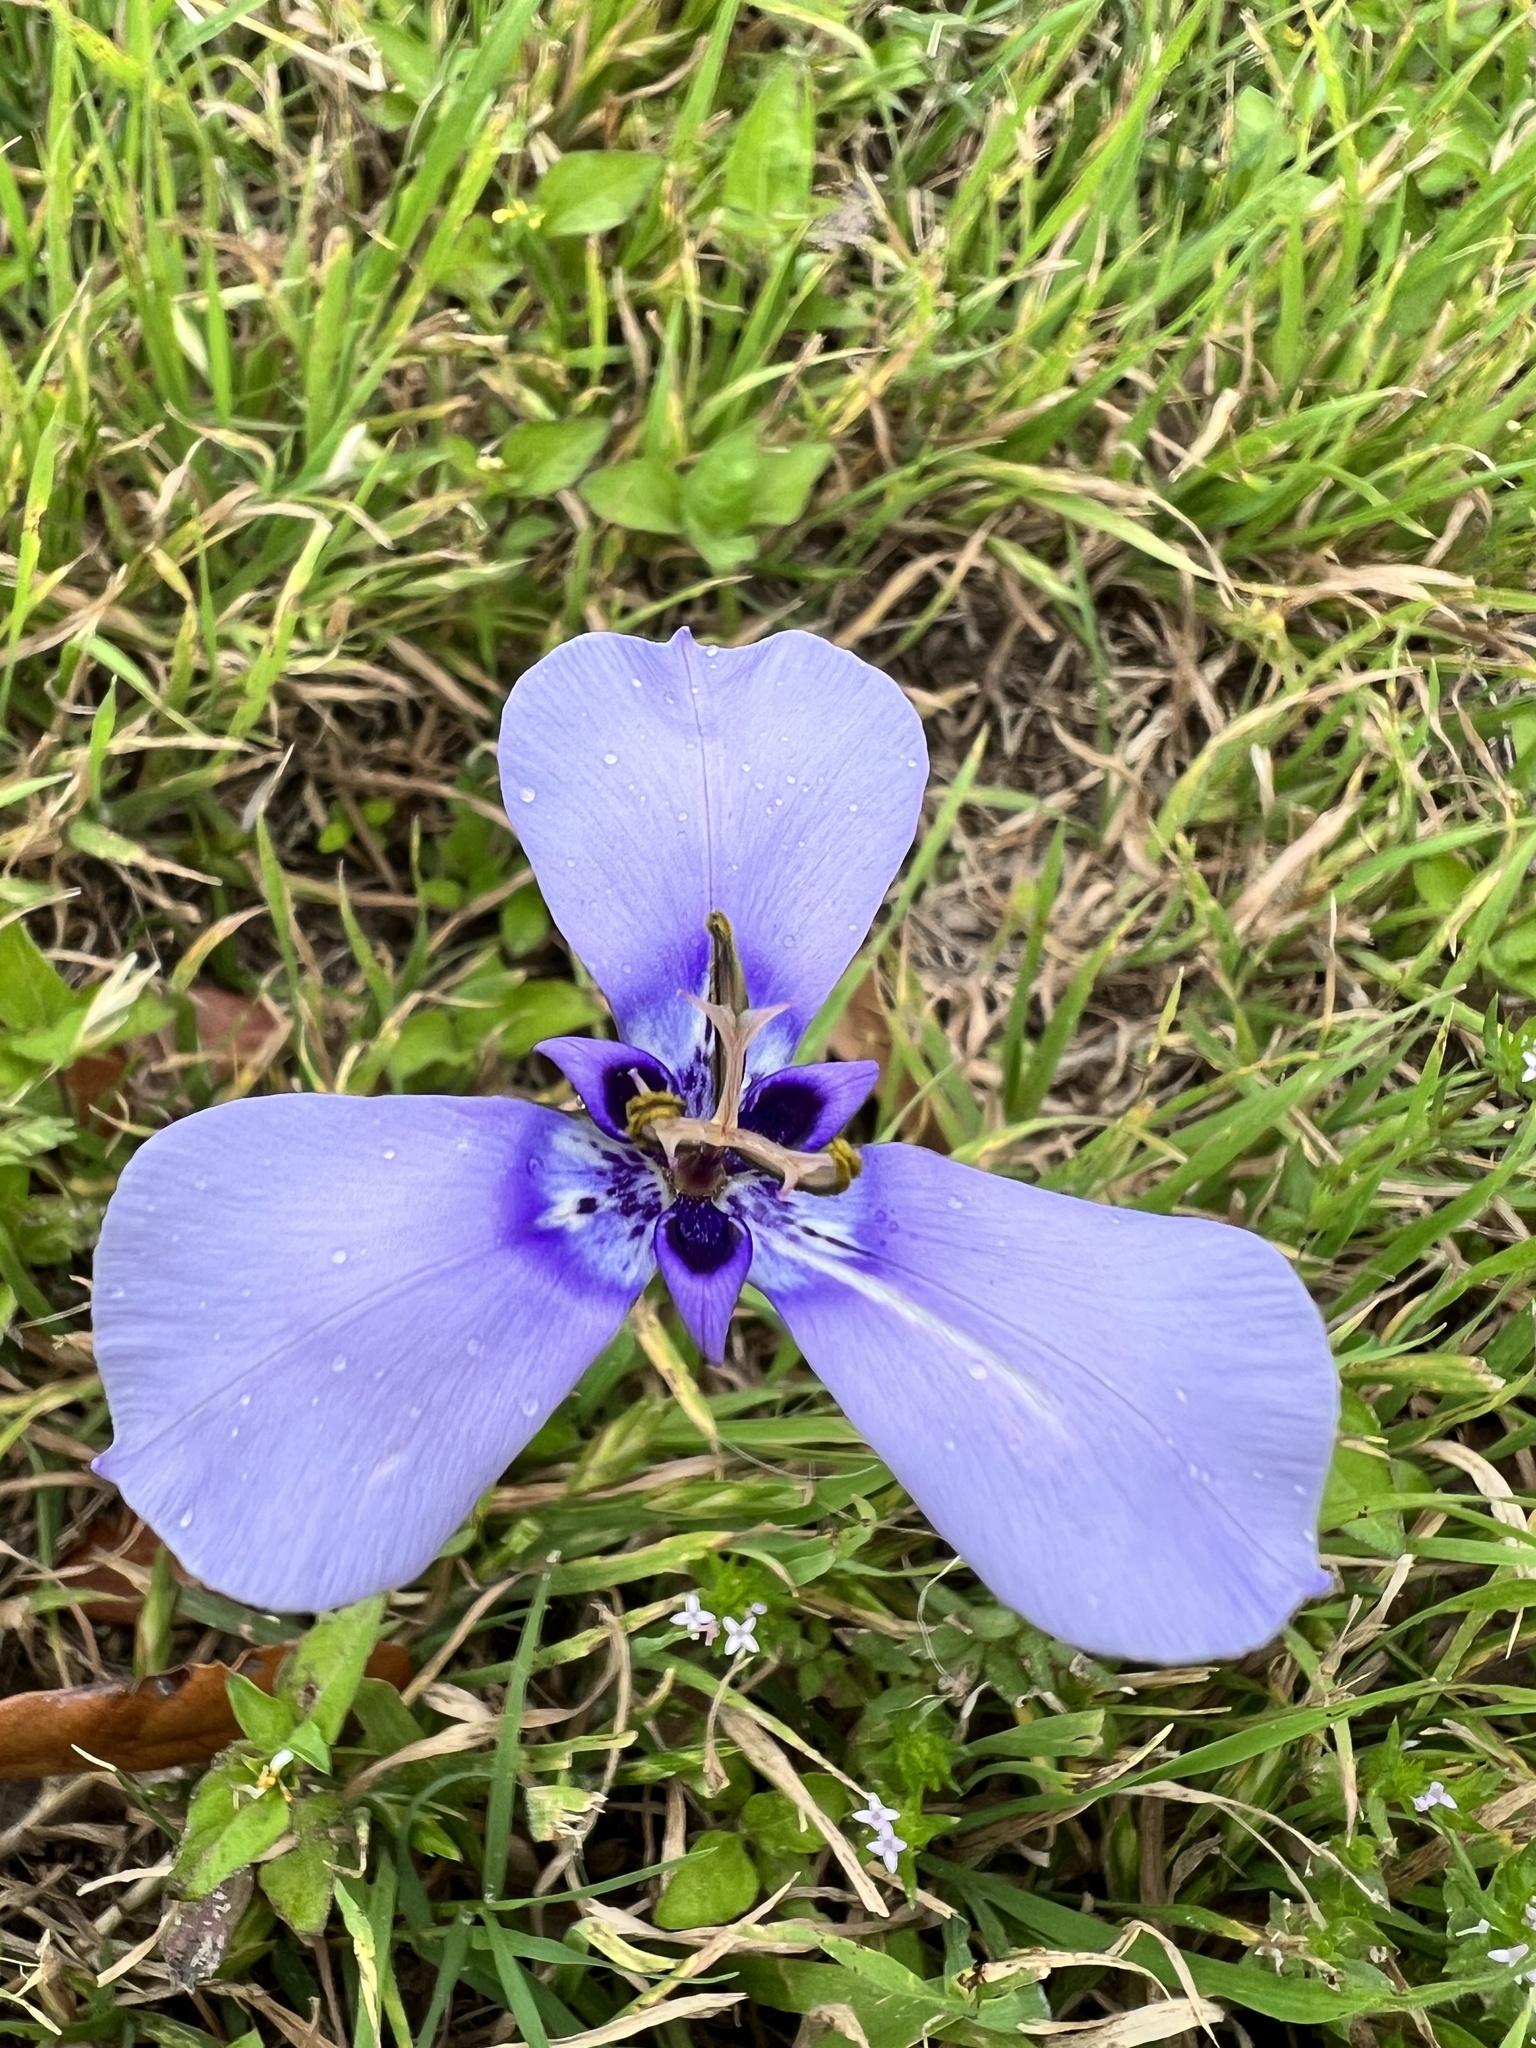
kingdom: Plantae
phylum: Tracheophyta
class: Liliopsida
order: Asparagales
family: Iridaceae
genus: Herbertia
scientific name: Herbertia lahue
